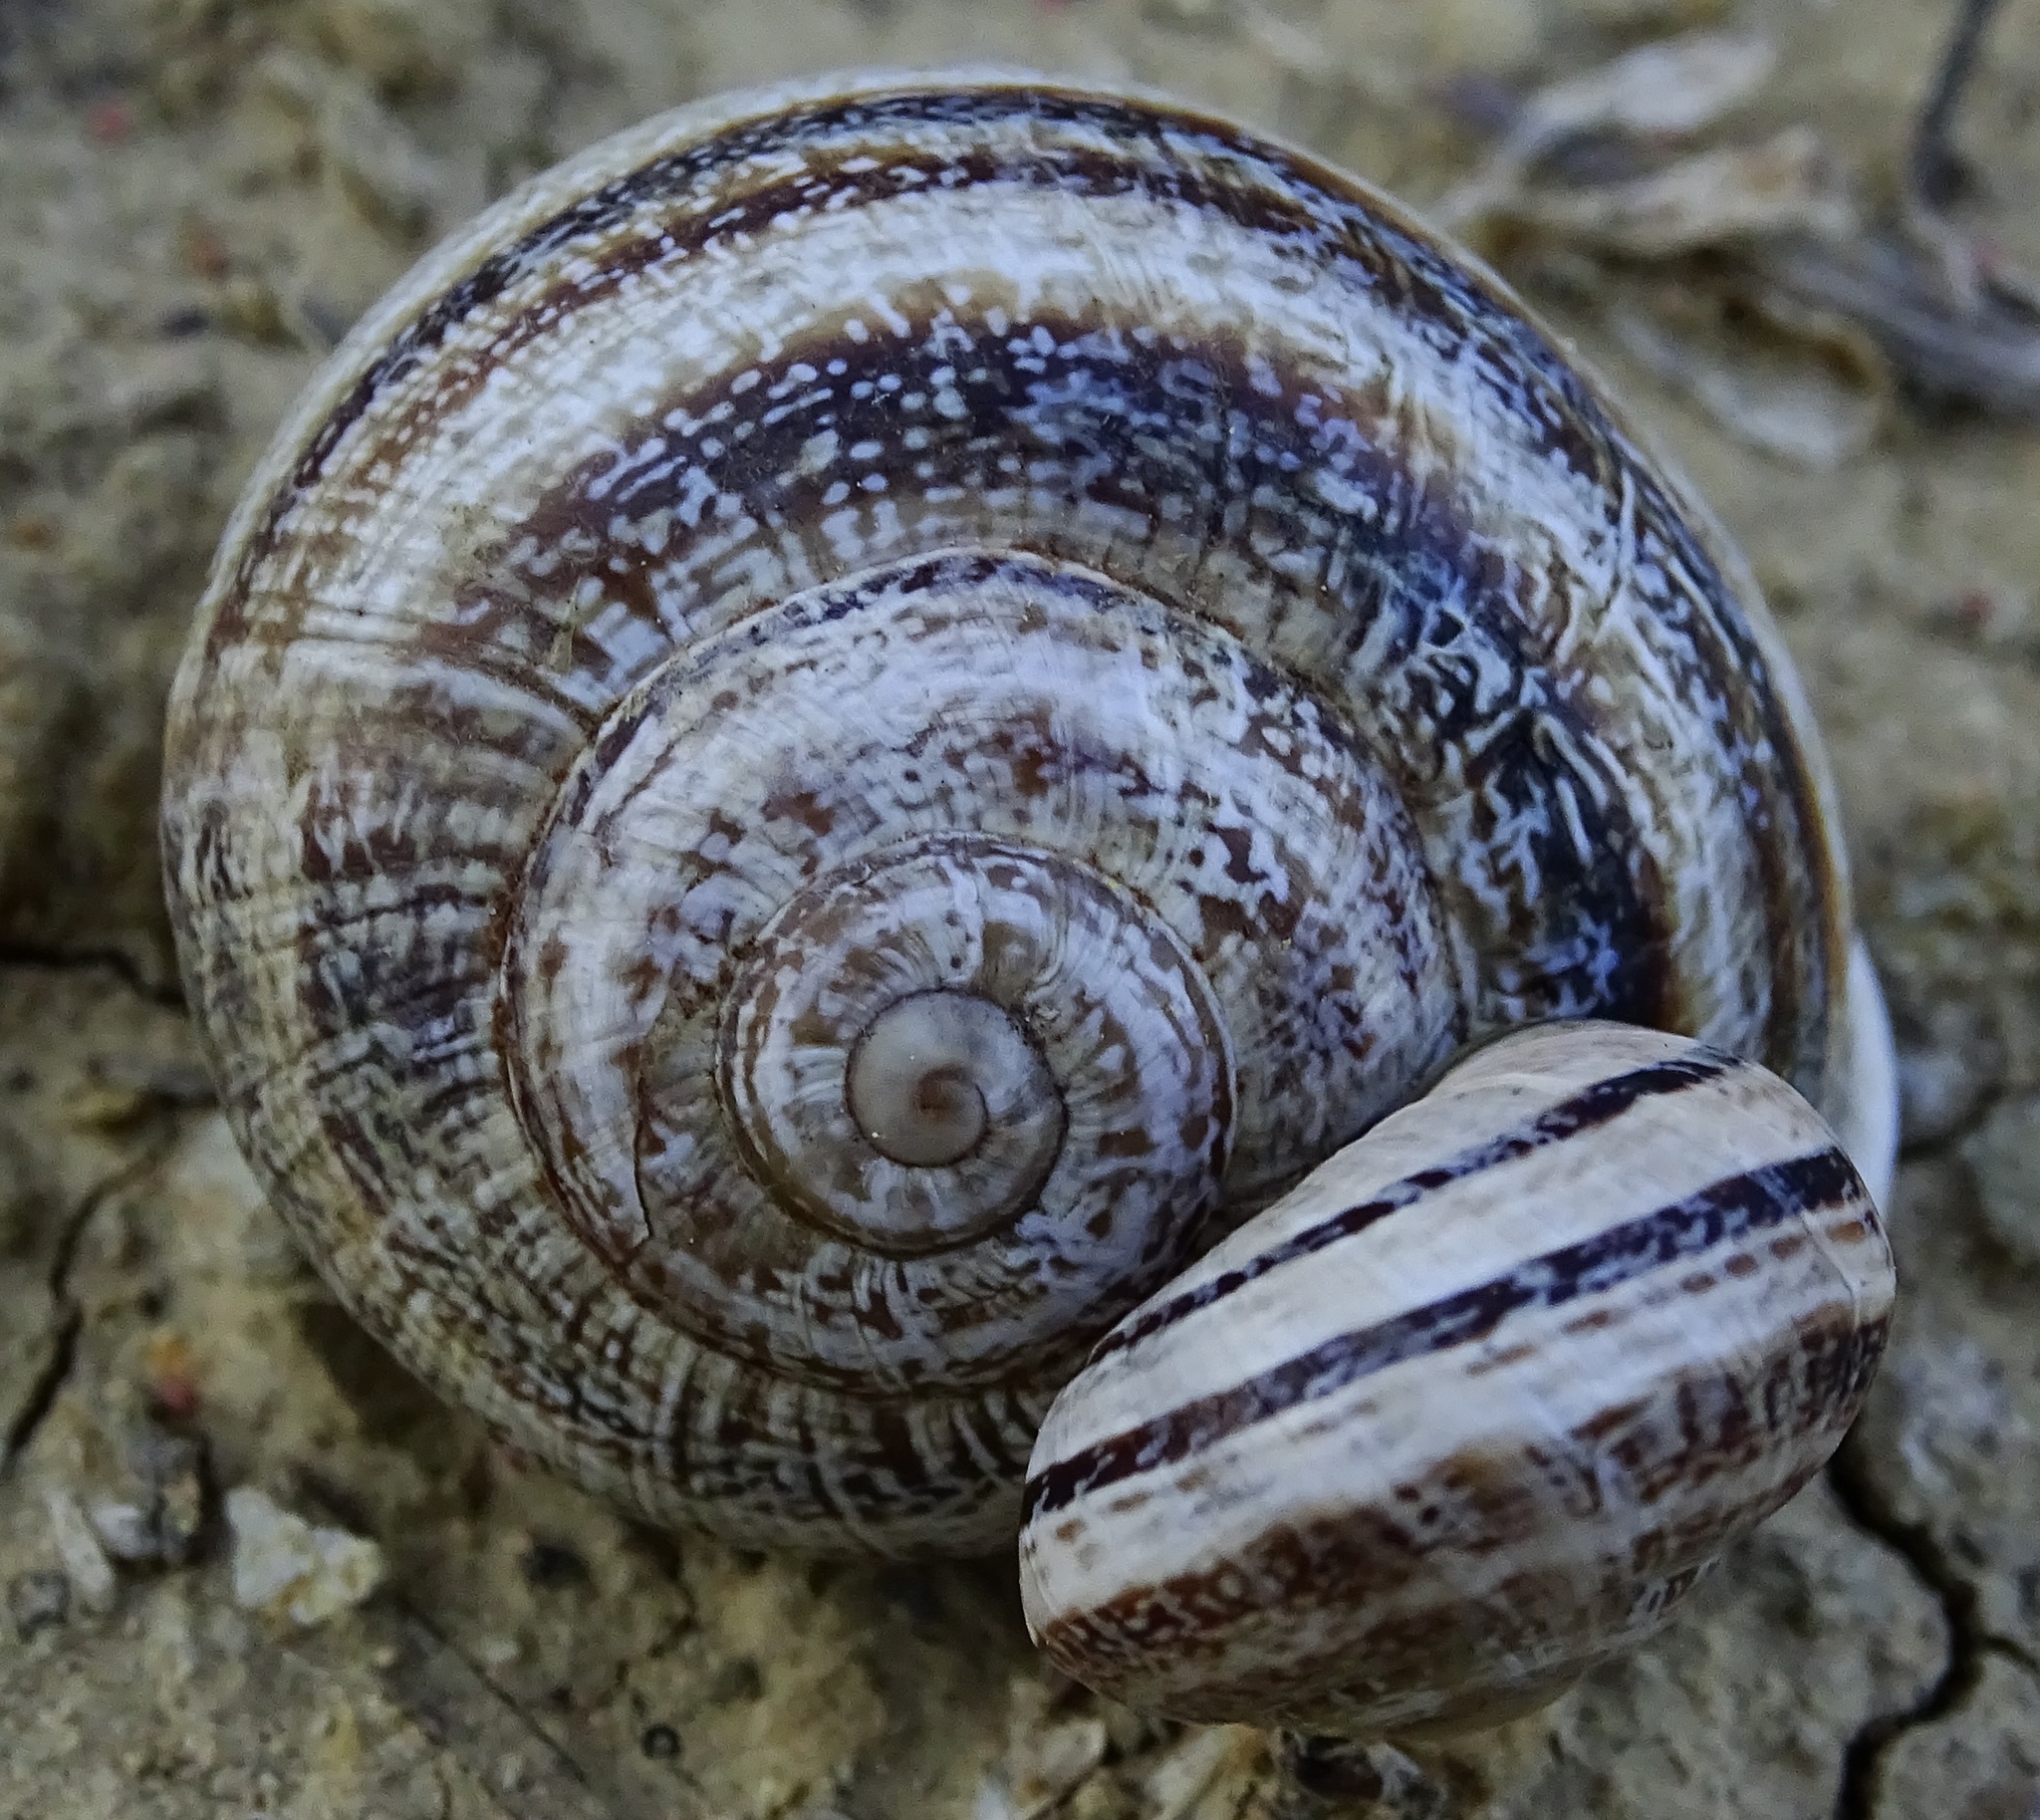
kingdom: Animalia
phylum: Mollusca
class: Gastropoda
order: Stylommatophora
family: Helicidae
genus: Otala
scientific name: Otala lactea
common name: Milk snail
